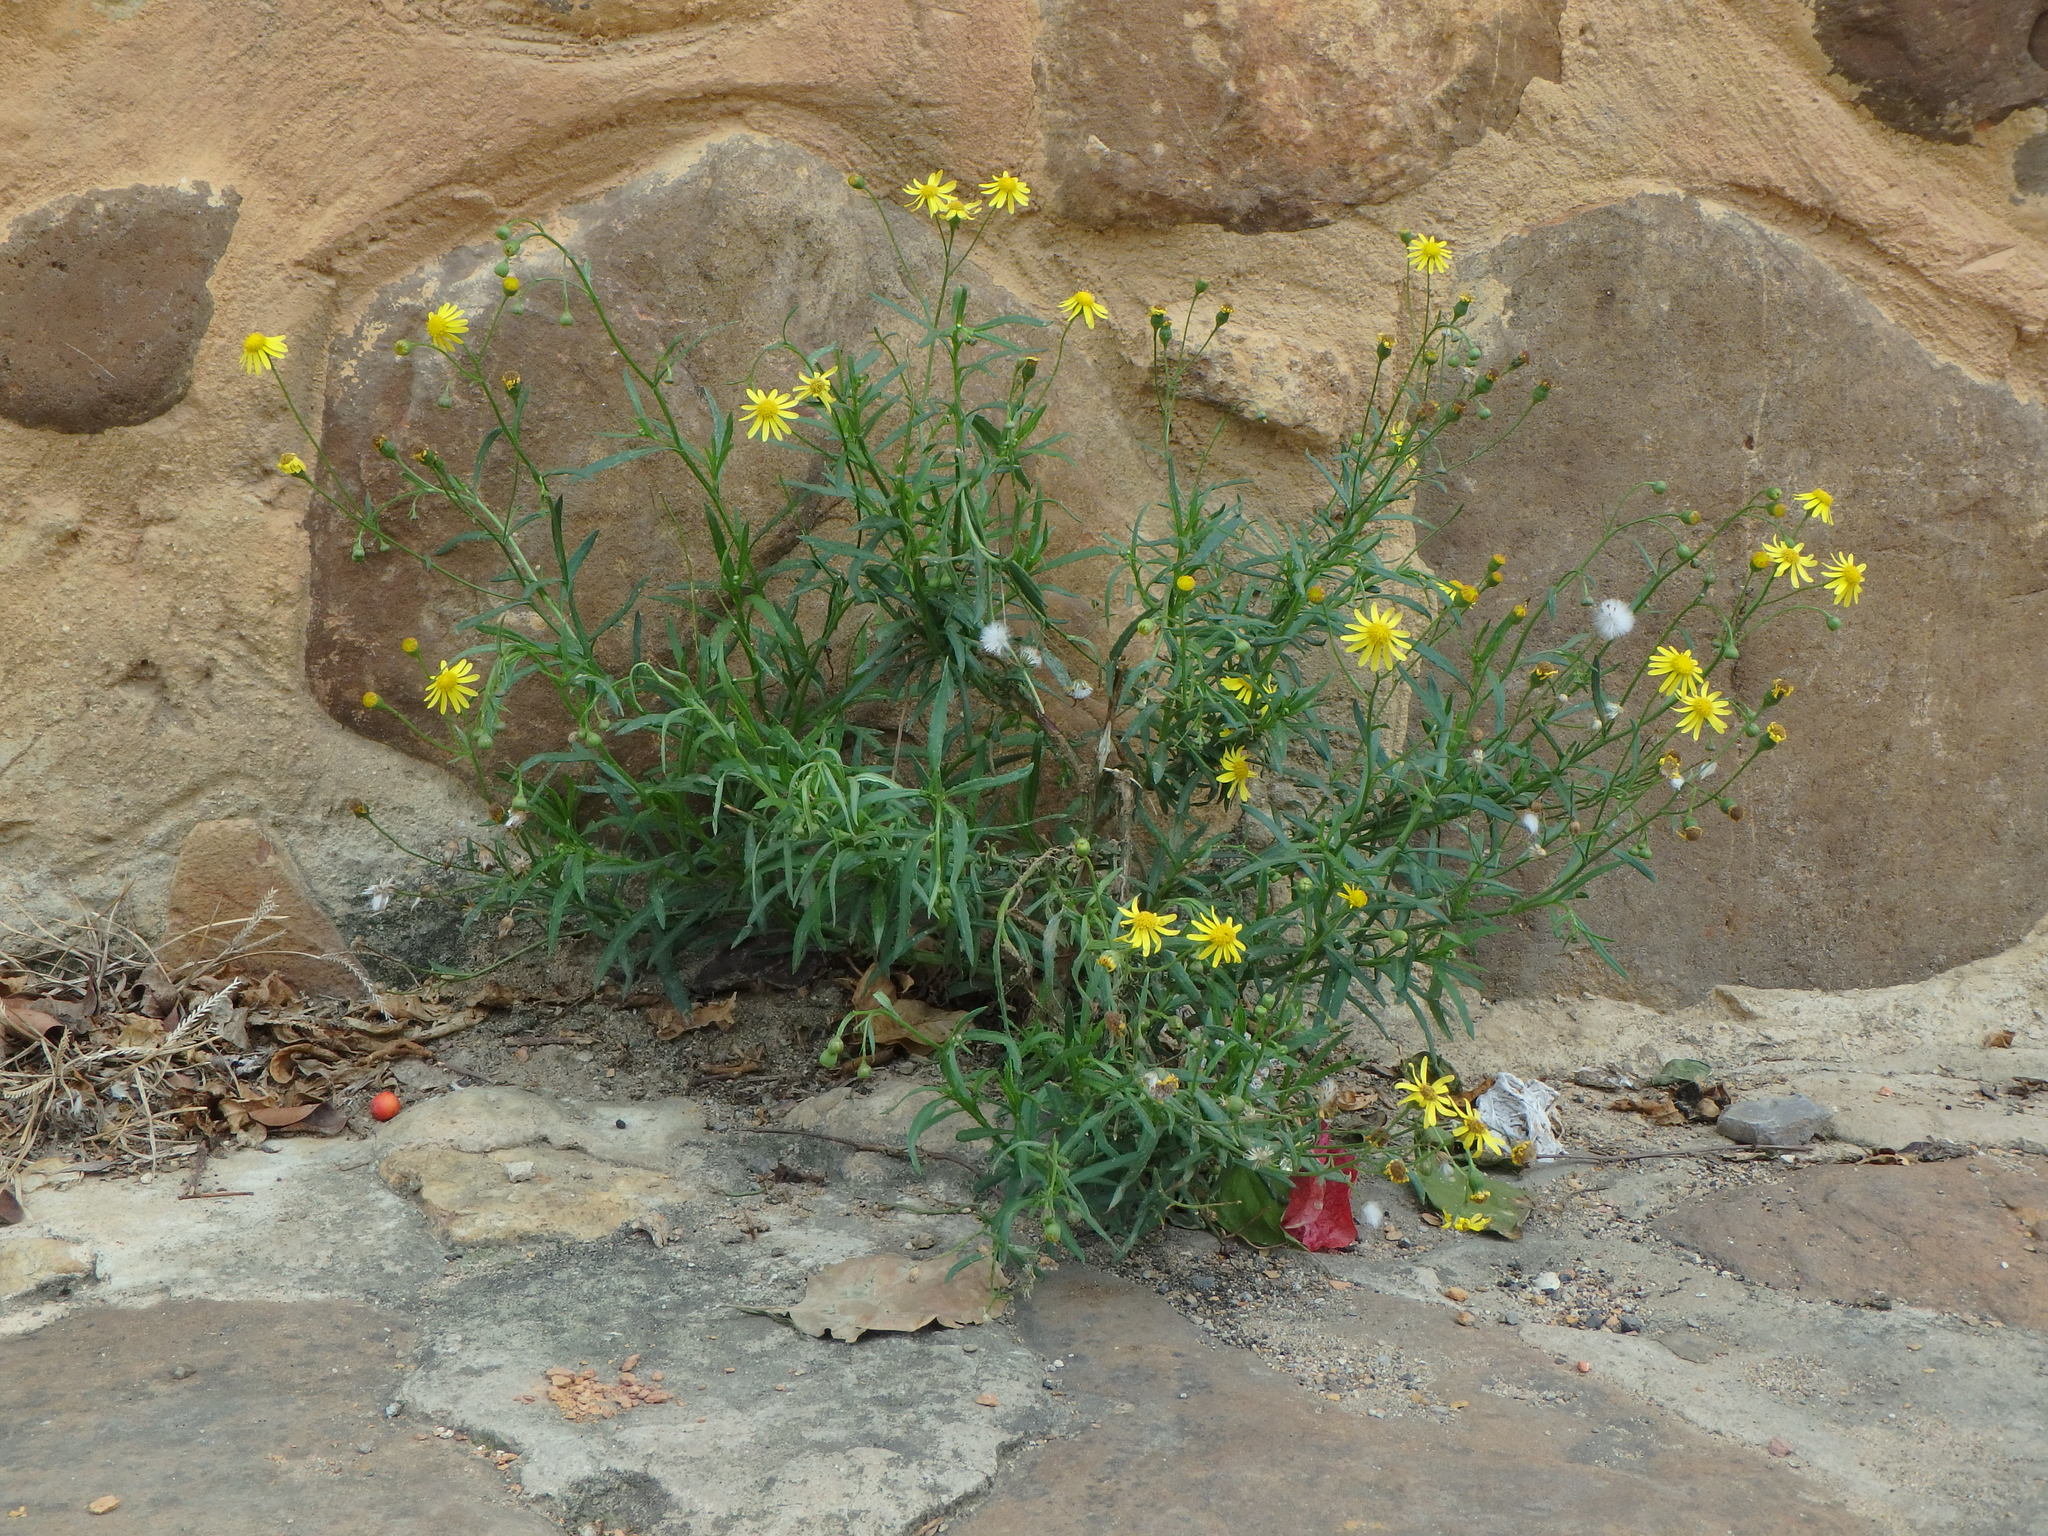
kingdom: Plantae
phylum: Tracheophyta
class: Magnoliopsida
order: Asterales
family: Asteraceae
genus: Senecio
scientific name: Senecio inaequidens
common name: Narrow-leaved ragwort
